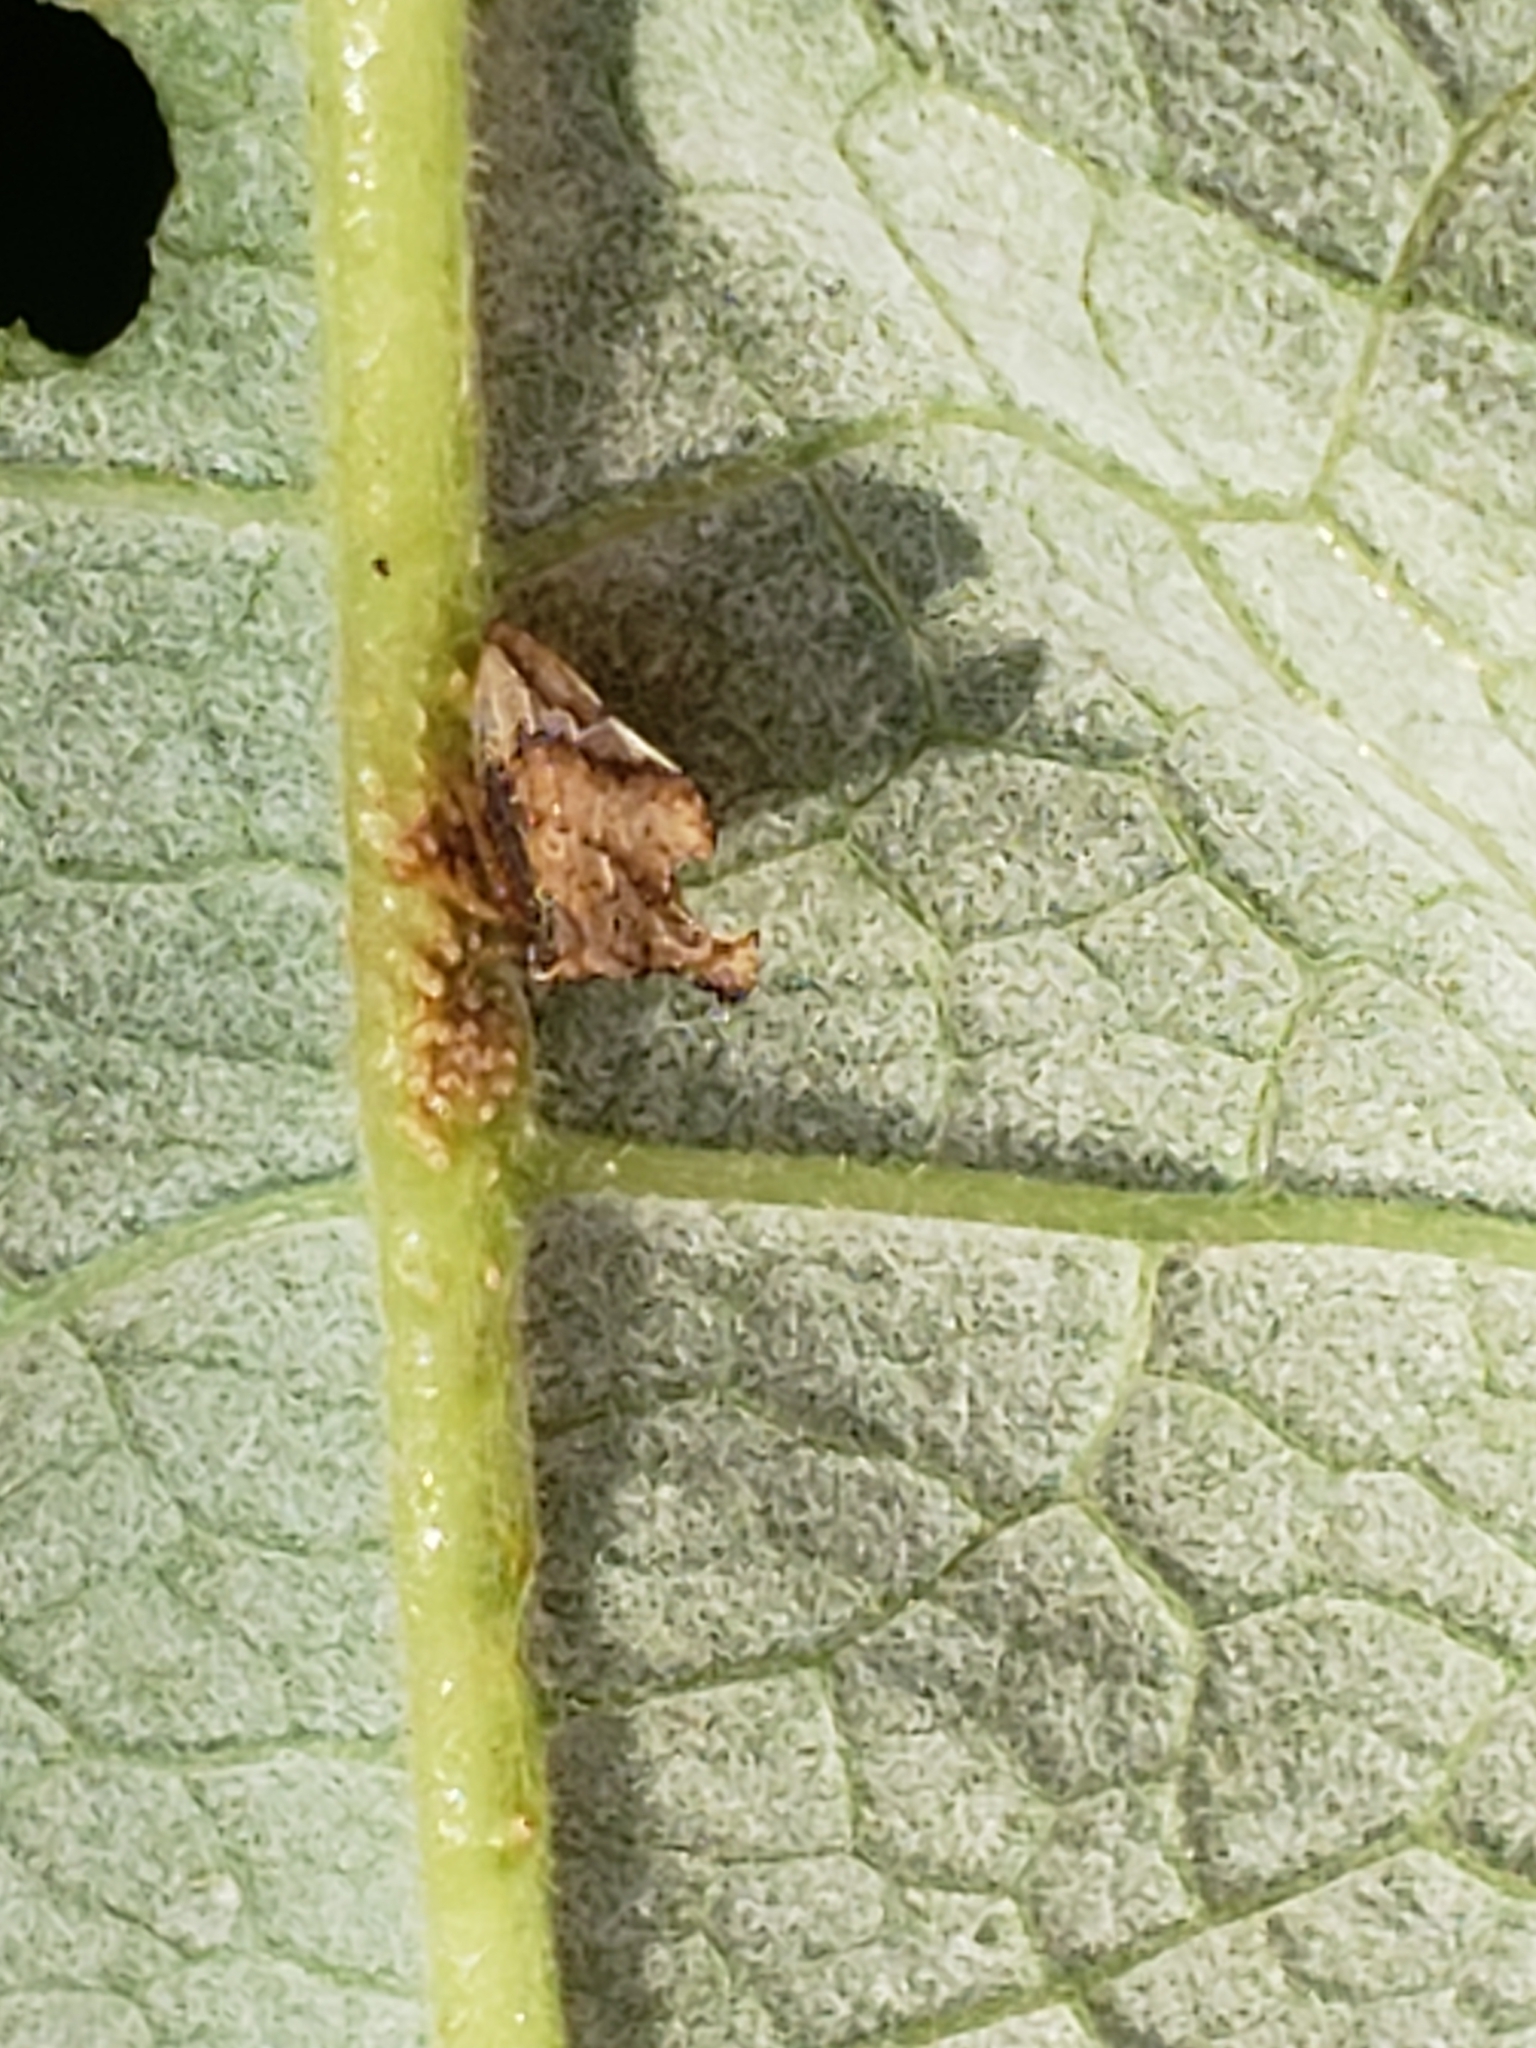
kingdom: Animalia
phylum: Arthropoda
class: Insecta
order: Hemiptera
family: Membracidae
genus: Entylia
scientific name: Entylia carinata
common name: Keeled treehopper
